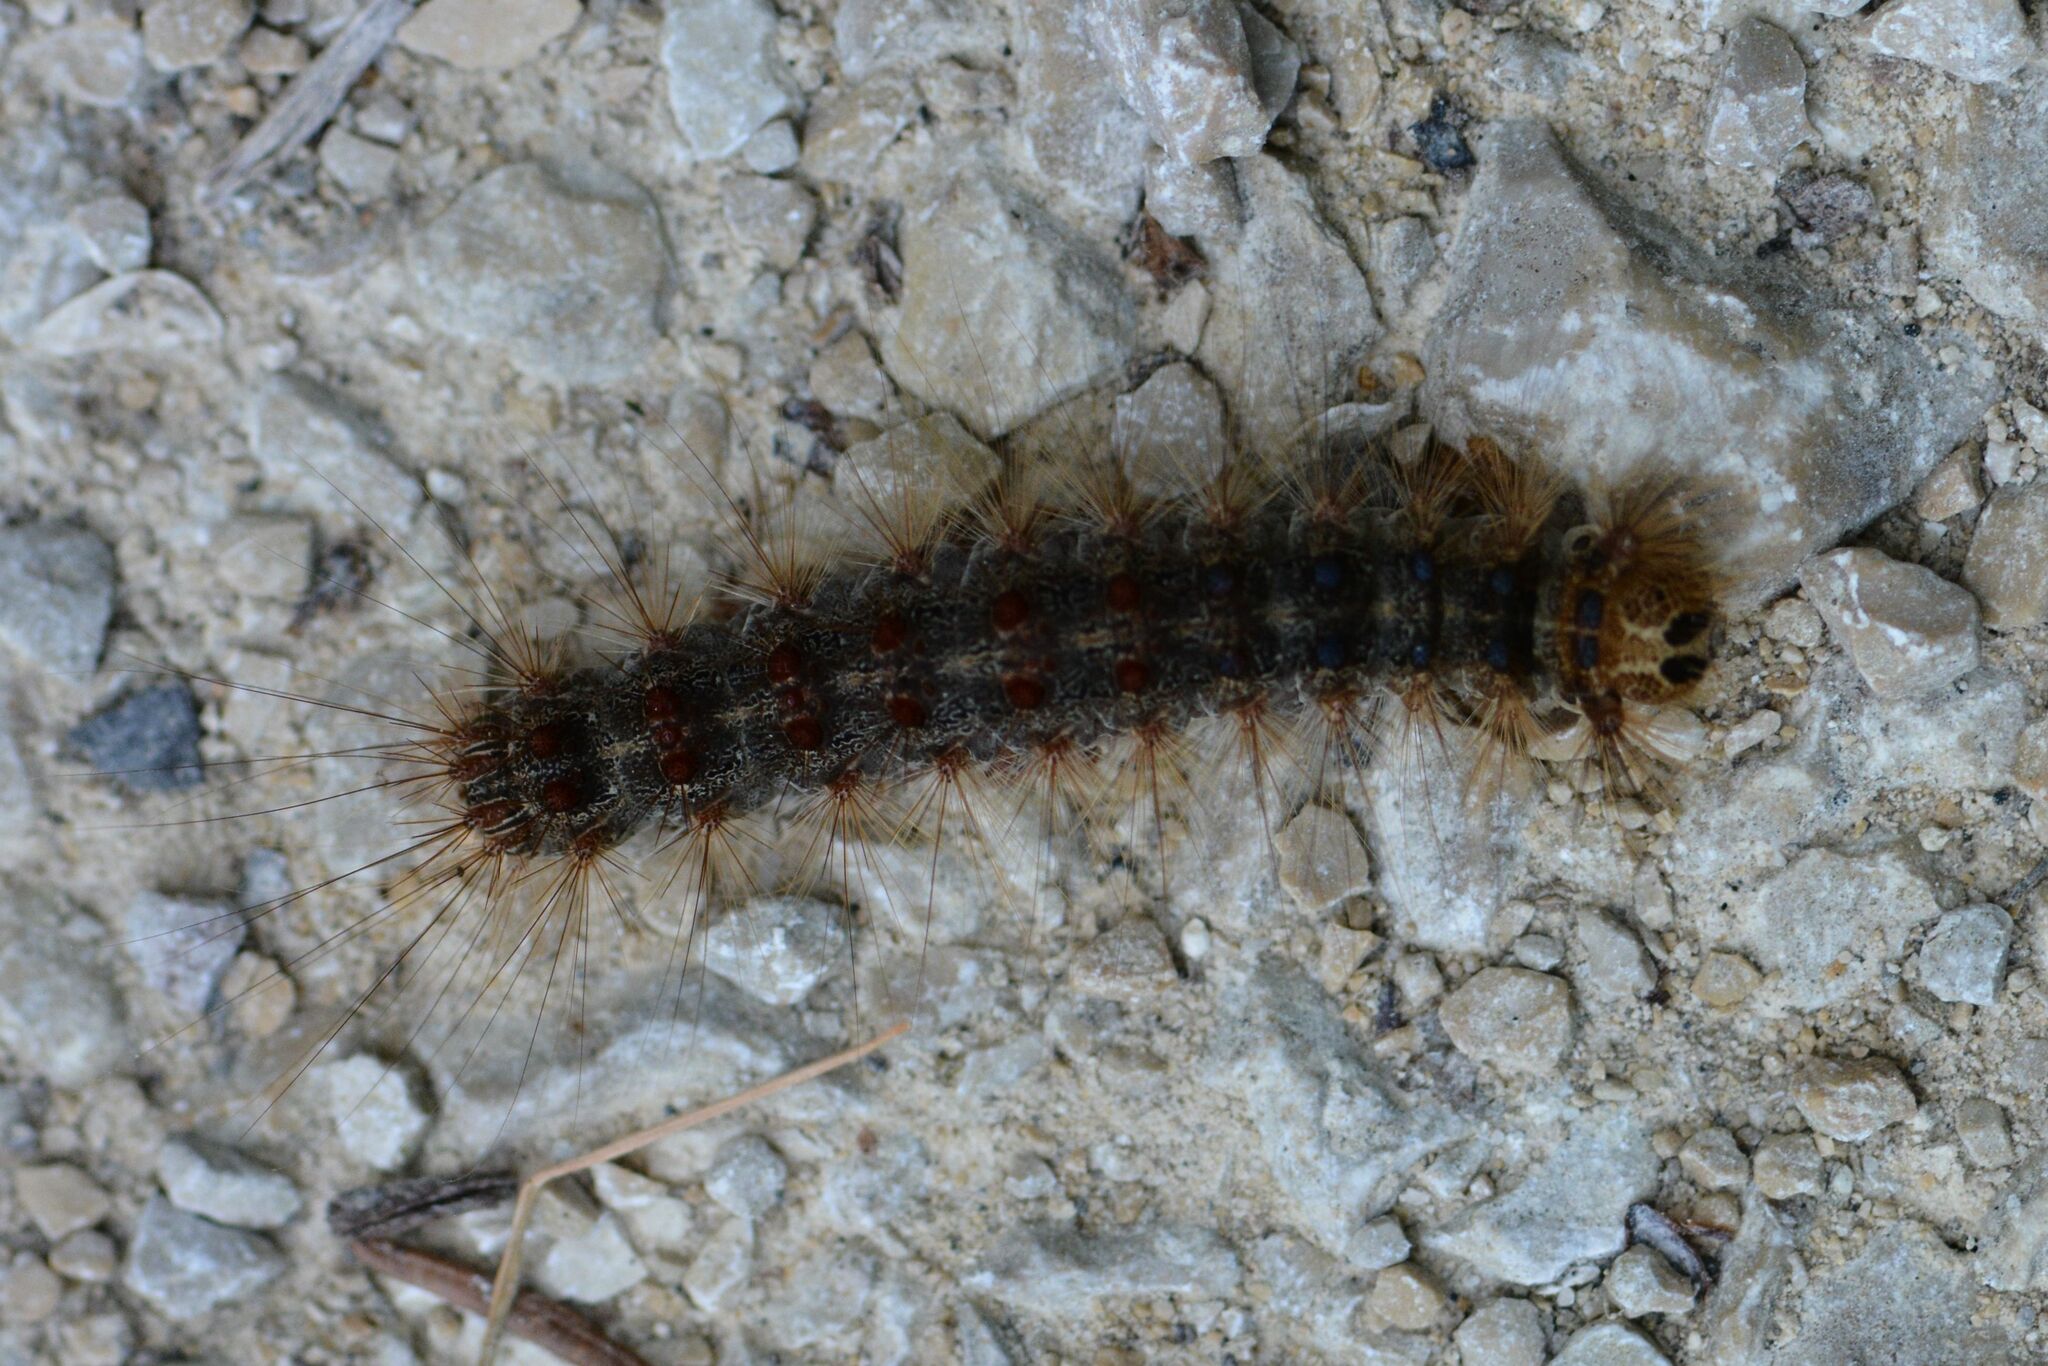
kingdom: Animalia
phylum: Arthropoda
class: Insecta
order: Lepidoptera
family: Erebidae
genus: Lymantria
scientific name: Lymantria dispar
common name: Gypsy moth
